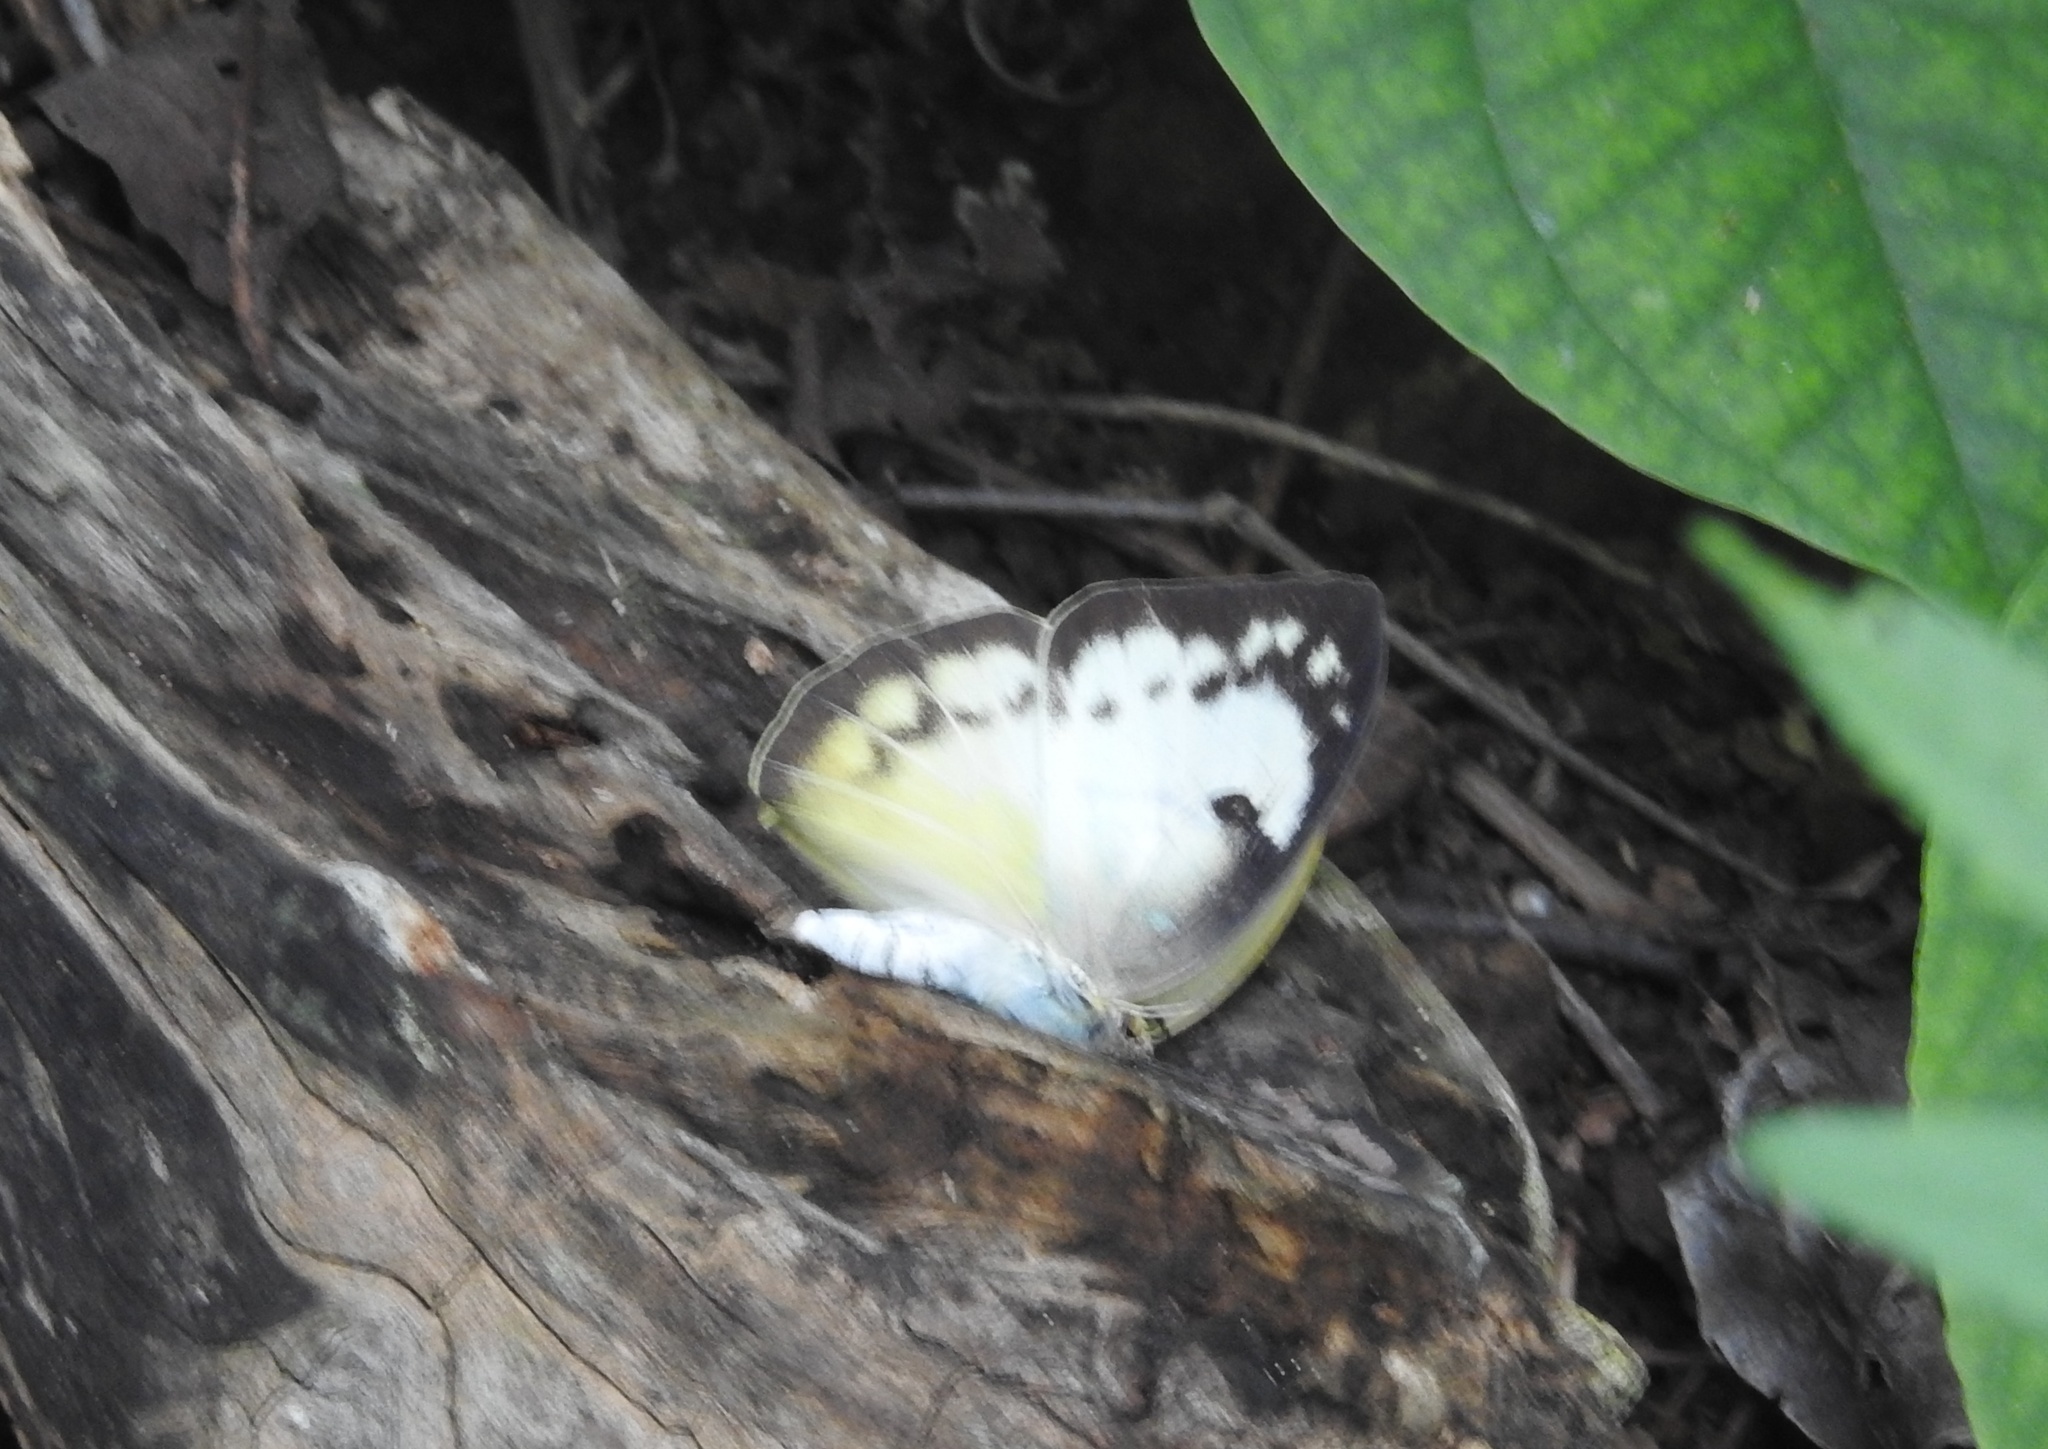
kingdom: Animalia
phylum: Arthropoda
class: Insecta
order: Lepidoptera
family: Pieridae
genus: Catopsilia
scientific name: Catopsilia pomona
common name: Common emigrant
